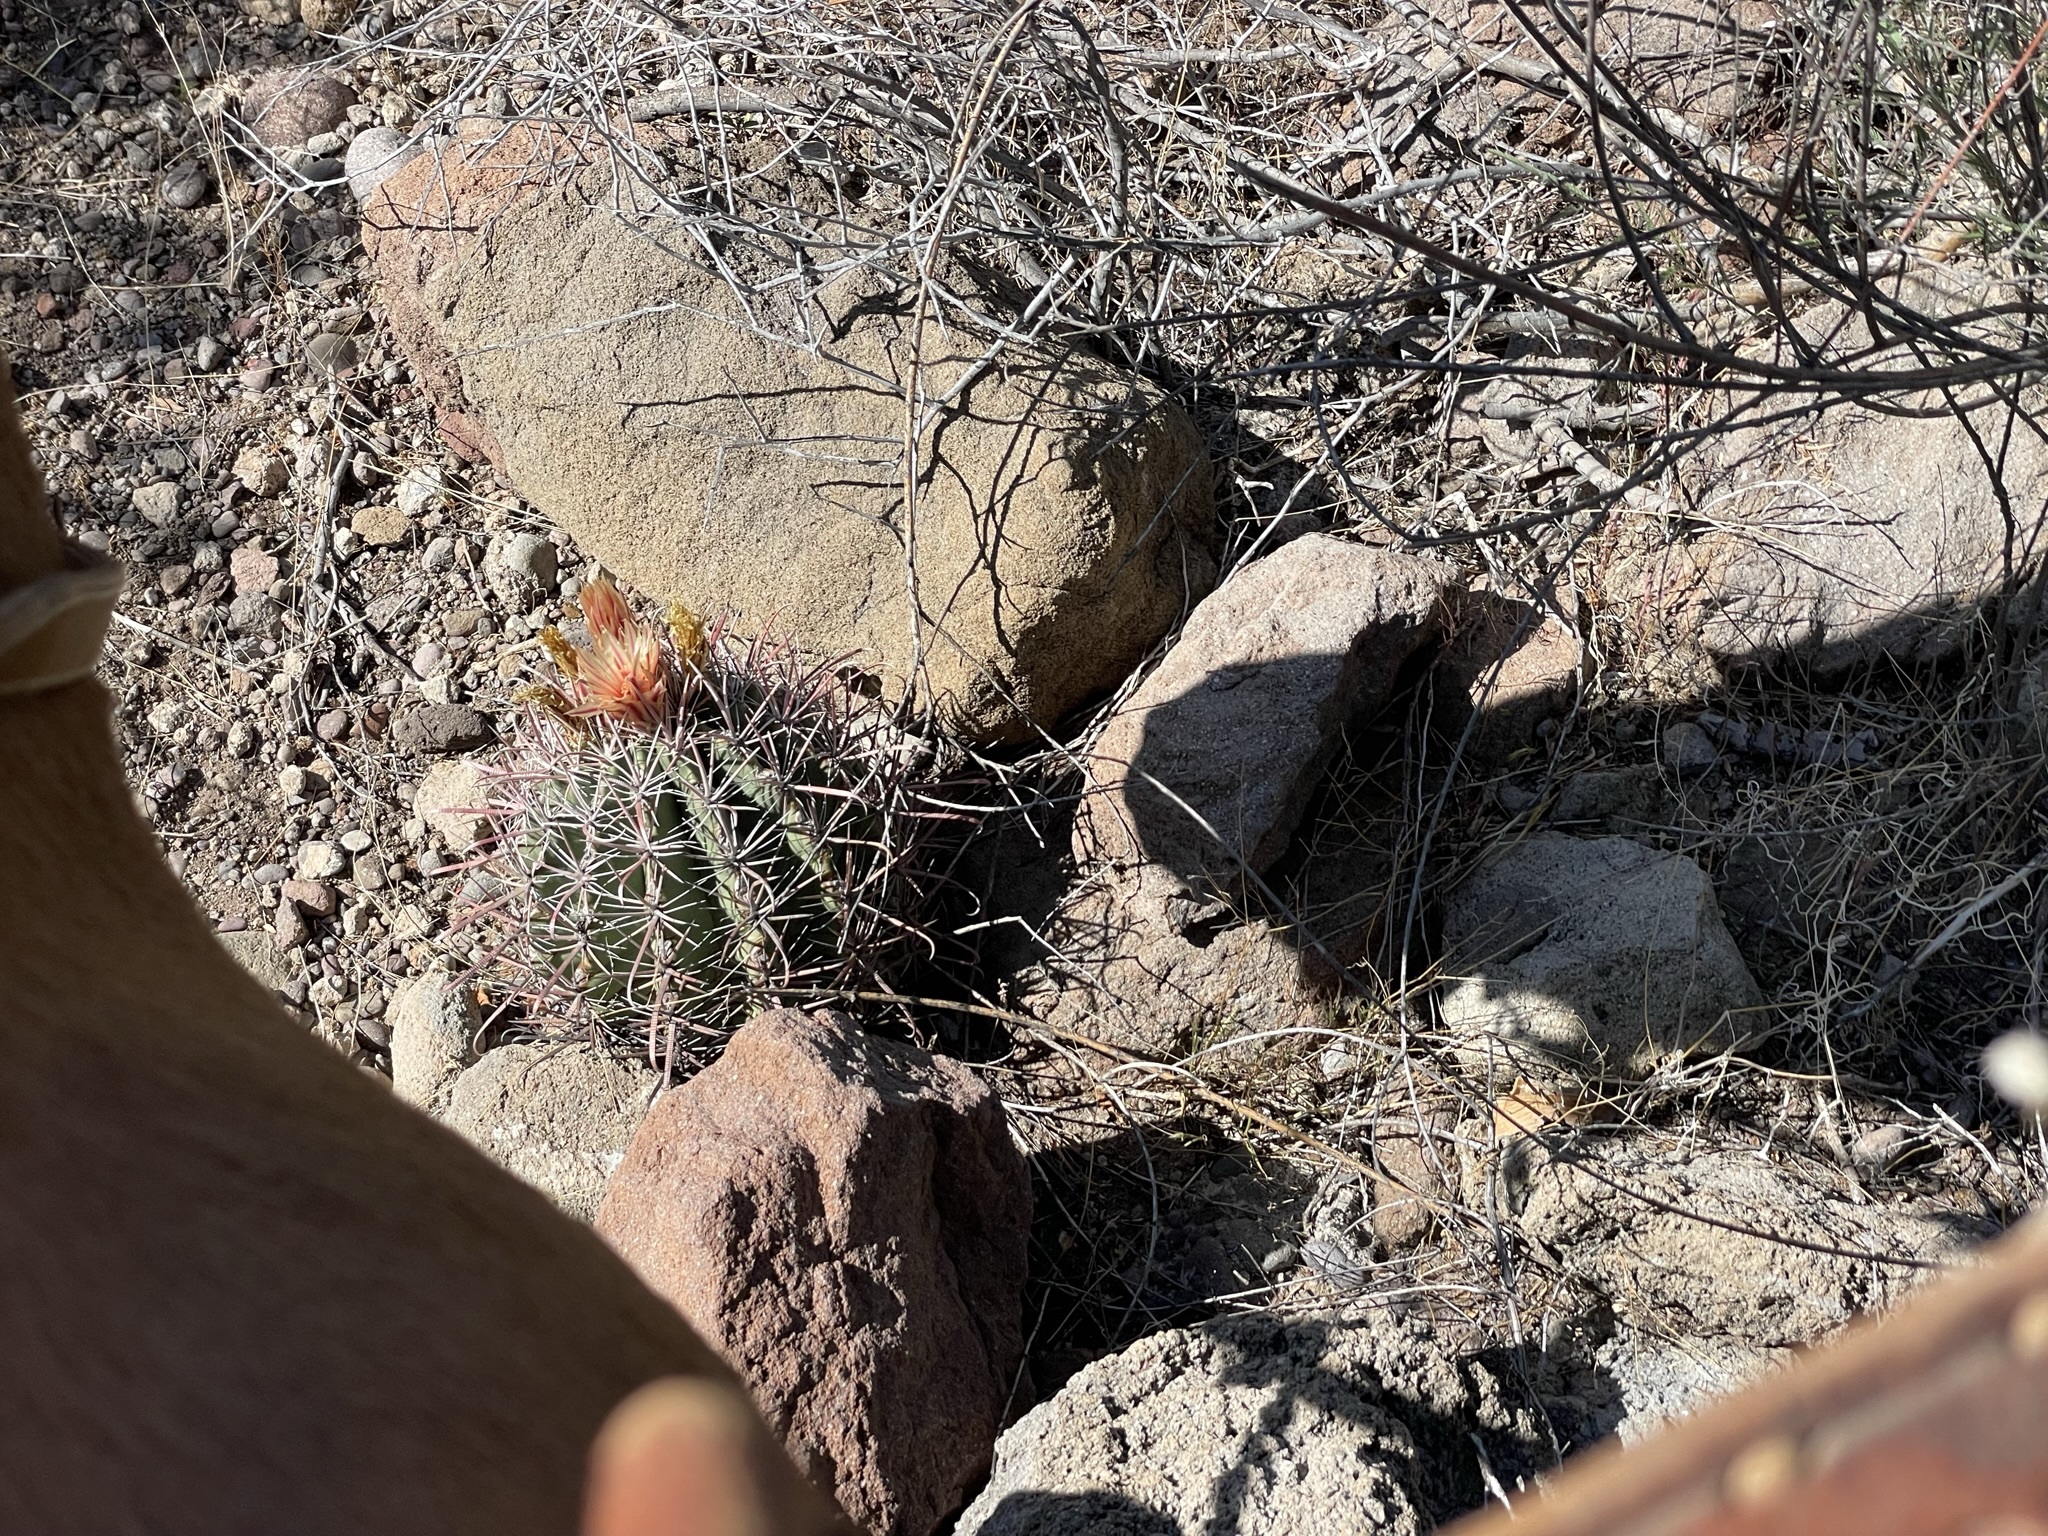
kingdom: Plantae
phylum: Tracheophyta
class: Magnoliopsida
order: Caryophyllales
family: Cactaceae
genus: Ferocactus
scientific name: Ferocactus townsendianus
